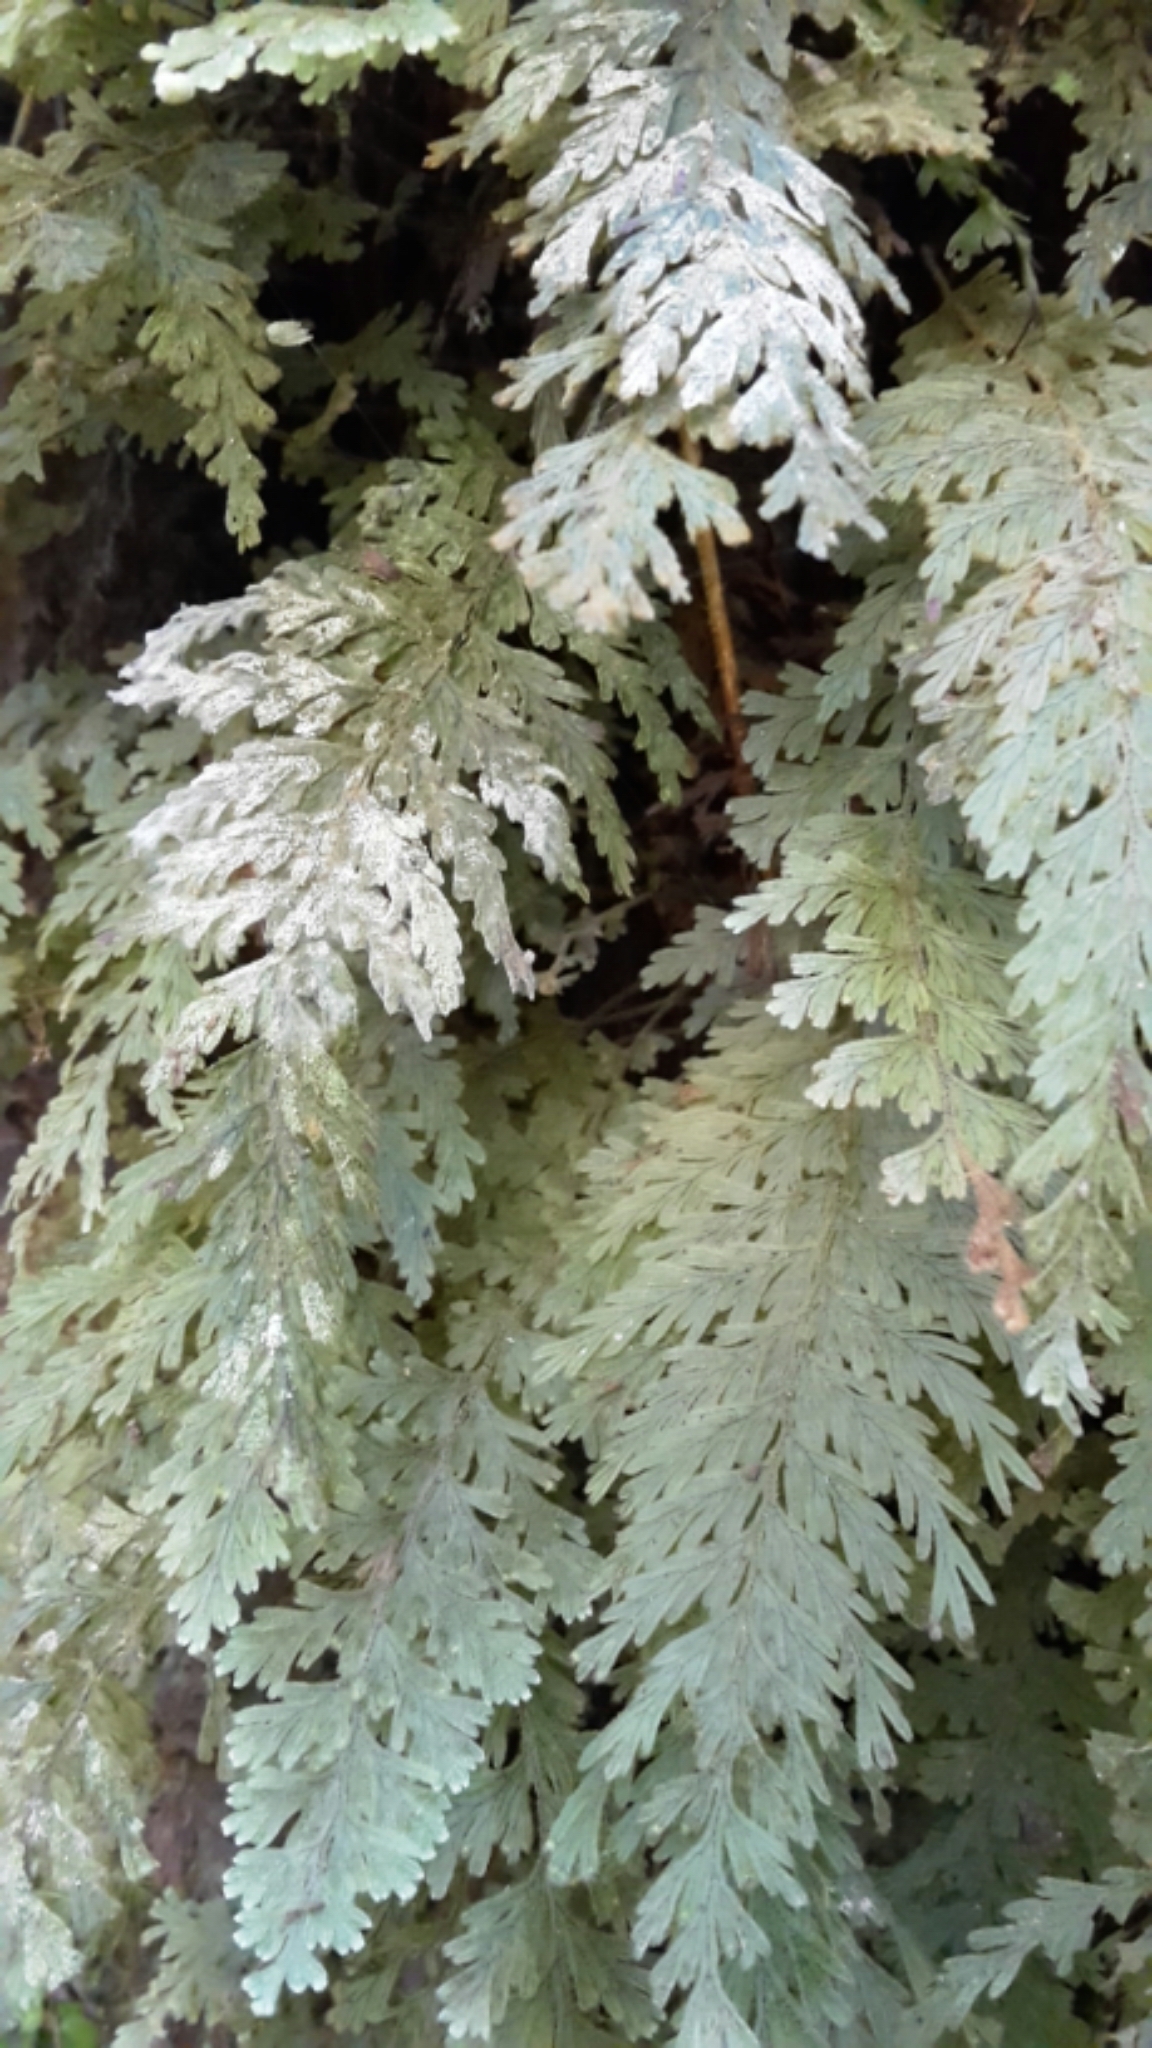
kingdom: Plantae
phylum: Tracheophyta
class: Polypodiopsida
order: Hymenophyllales
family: Hymenophyllaceae
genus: Hymenophyllum
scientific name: Hymenophyllum frankliniae
